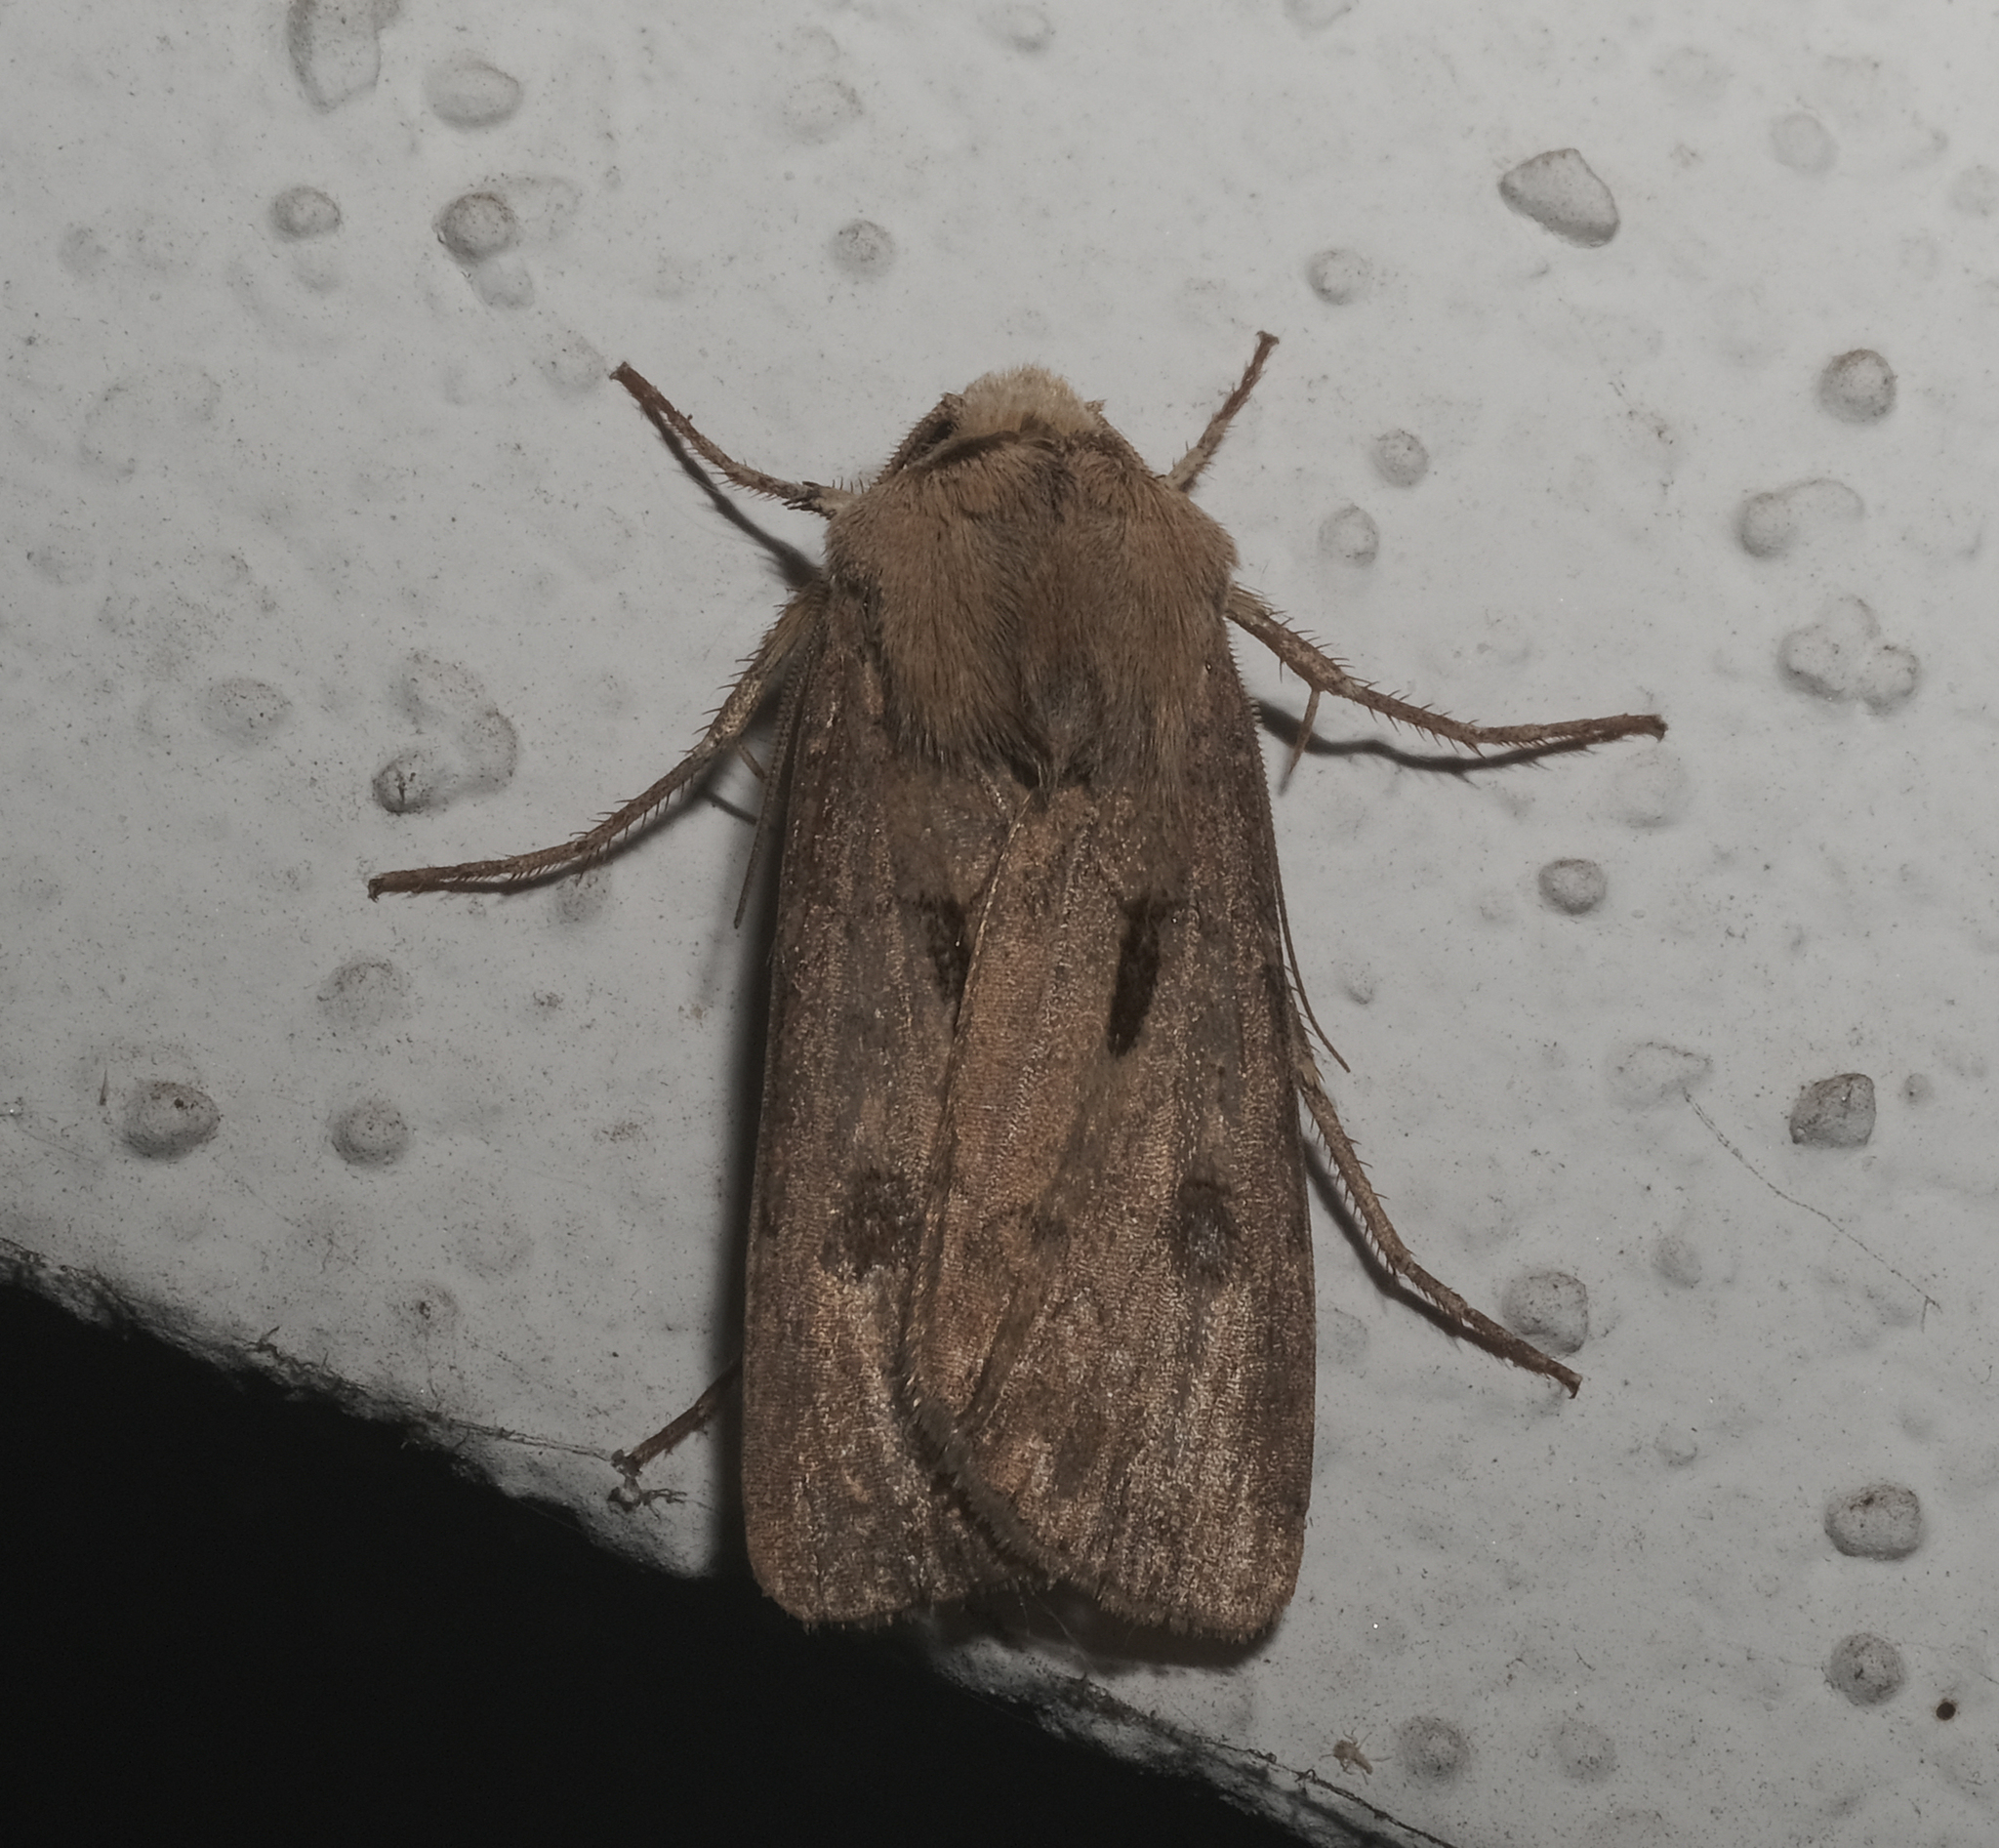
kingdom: Animalia
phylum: Arthropoda
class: Insecta
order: Lepidoptera
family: Noctuidae
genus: Agrotis
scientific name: Agrotis exclamationis
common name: Heart and dart
